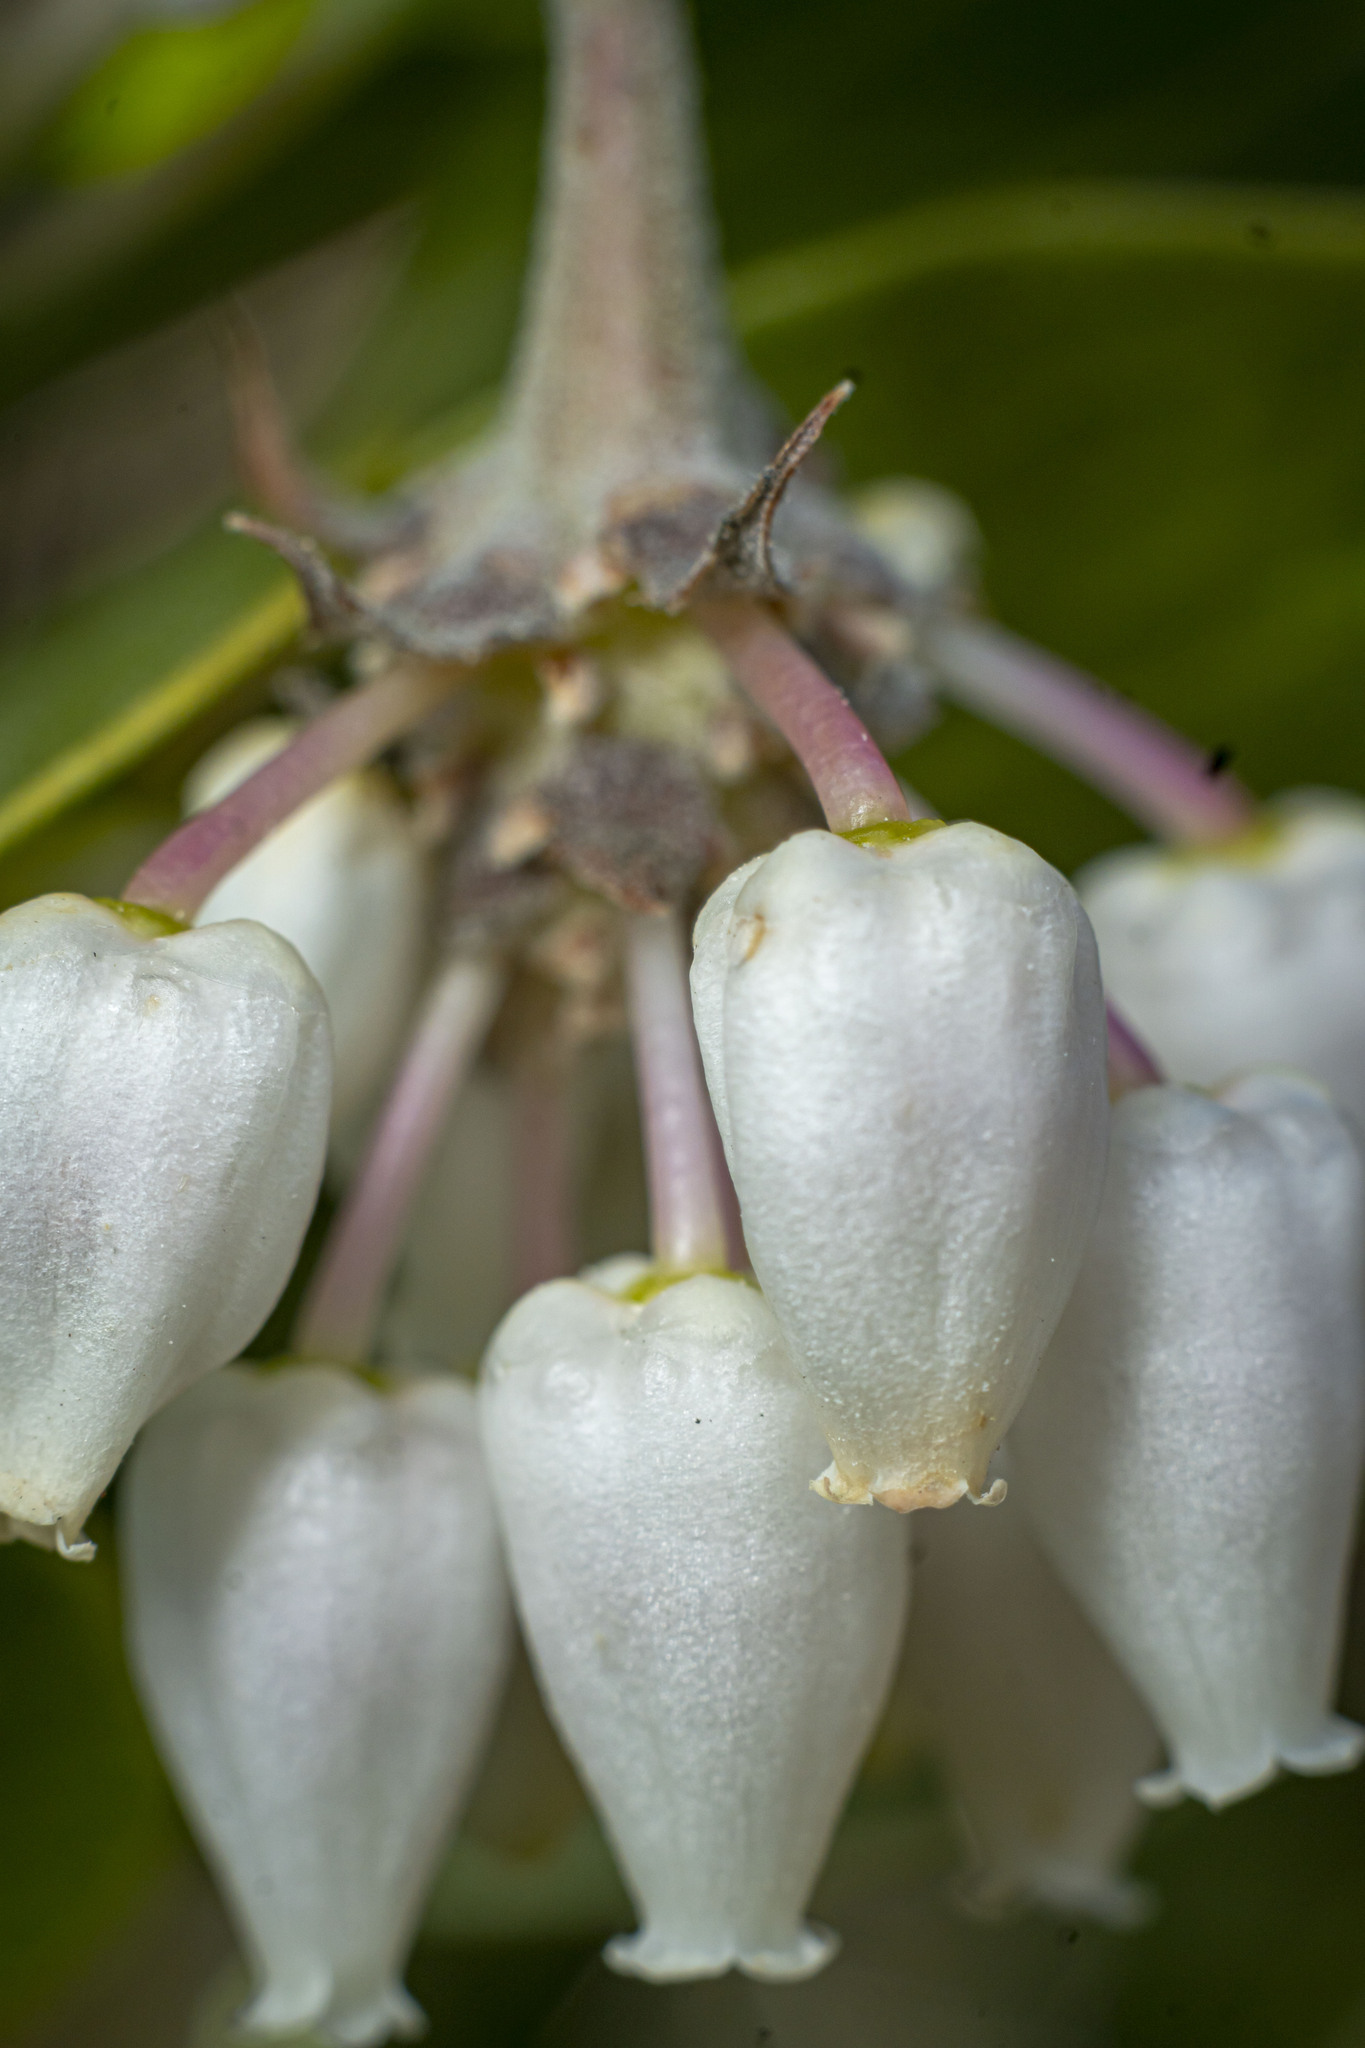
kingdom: Plantae
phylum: Tracheophyta
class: Magnoliopsida
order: Ericales
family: Ericaceae
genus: Arctostaphylos
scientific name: Arctostaphylos pungens
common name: Mexican manzanita
